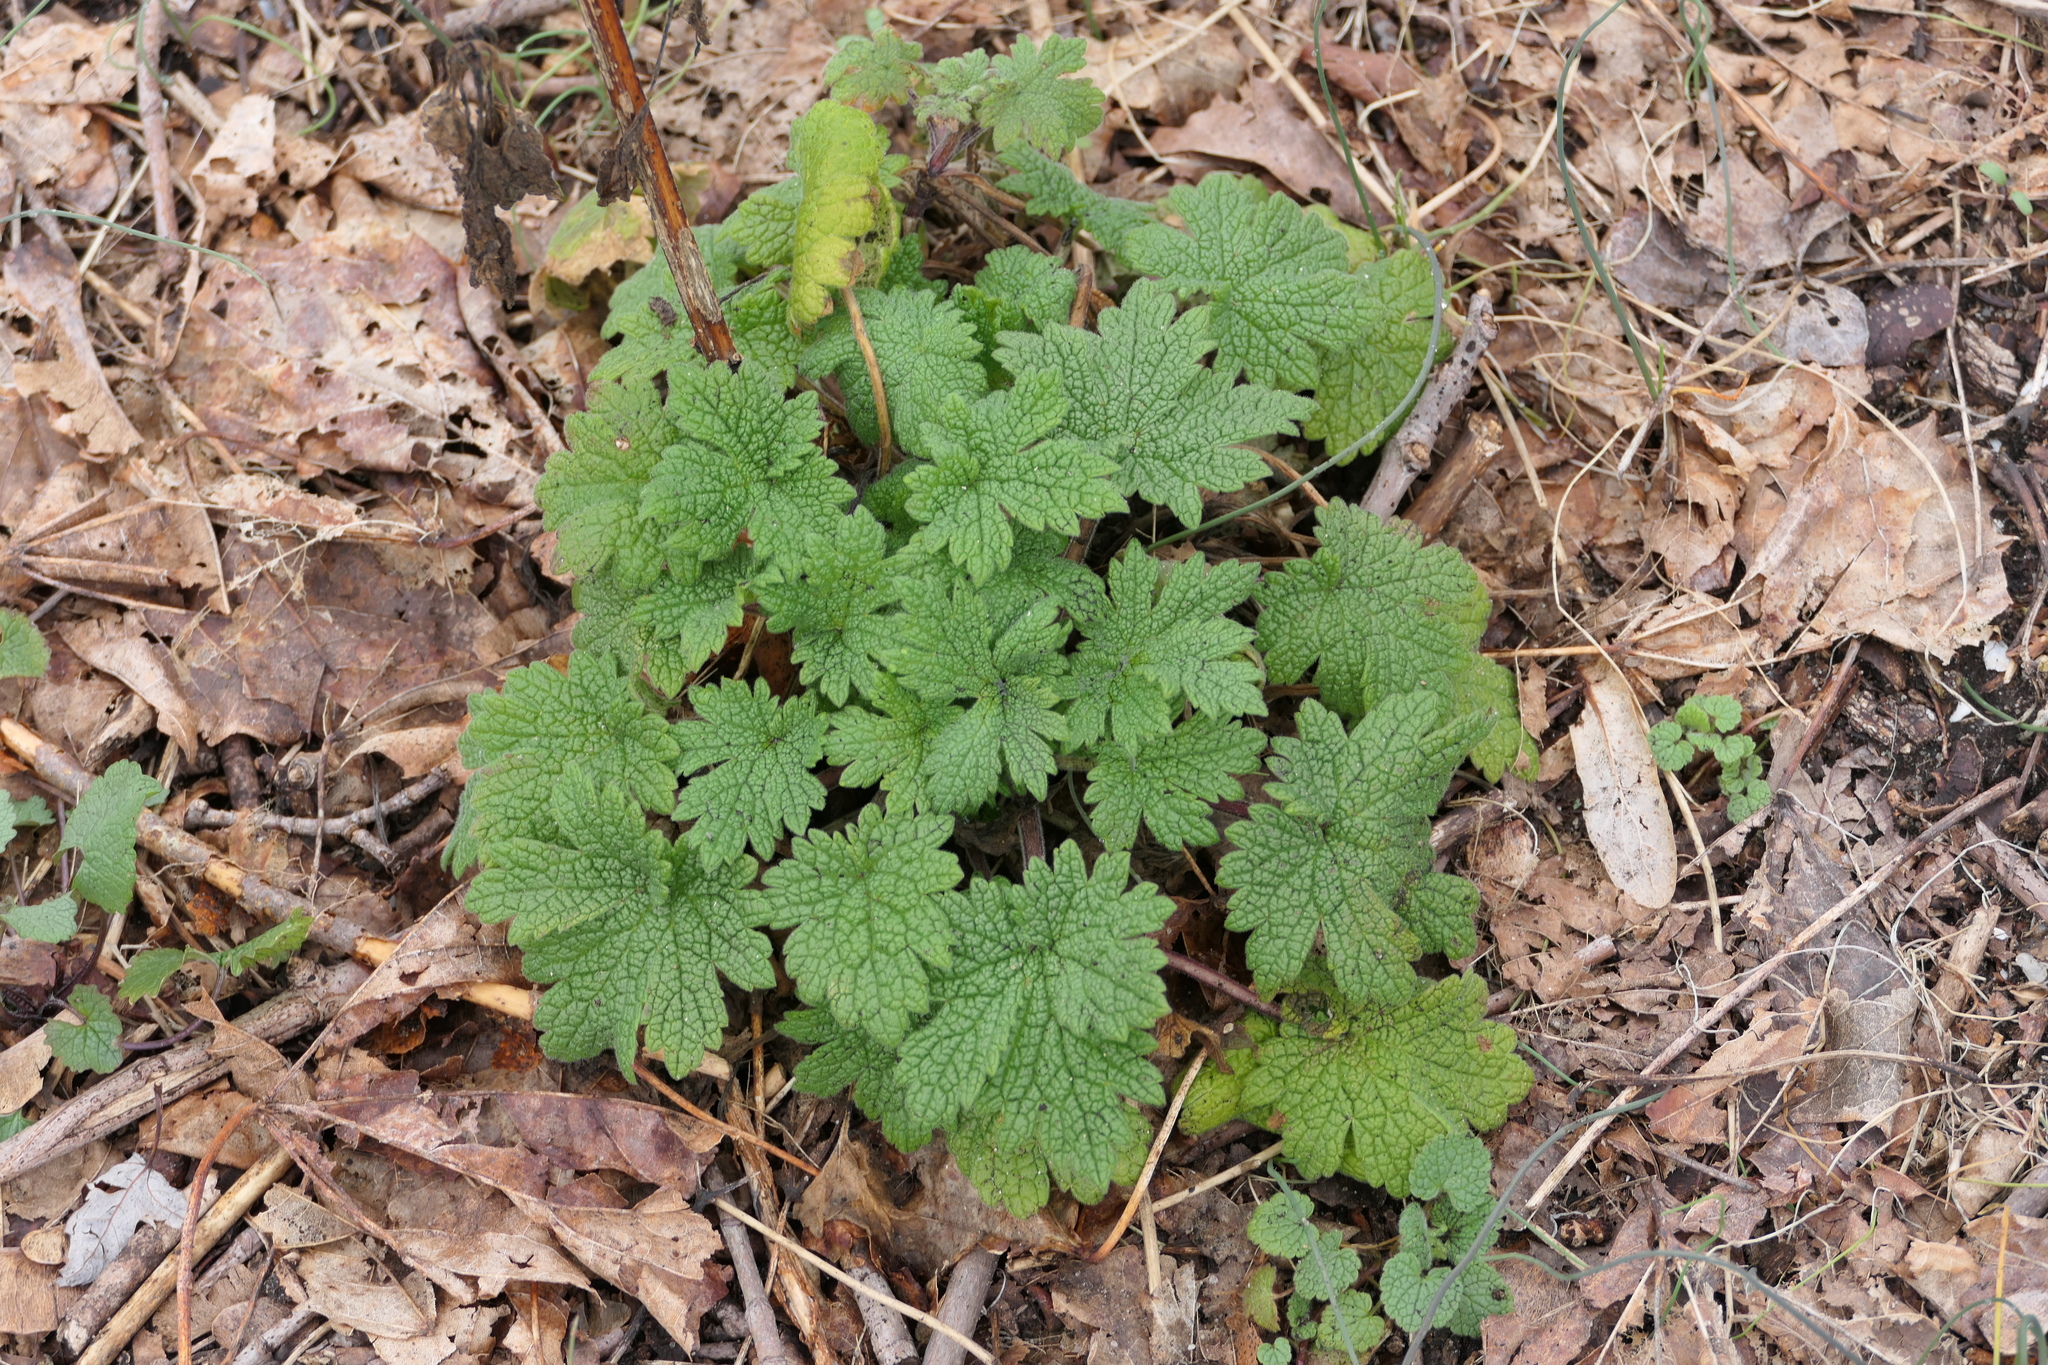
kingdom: Plantae
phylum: Tracheophyta
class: Magnoliopsida
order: Lamiales
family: Lamiaceae
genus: Leonurus
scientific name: Leonurus cardiaca
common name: Motherwort
